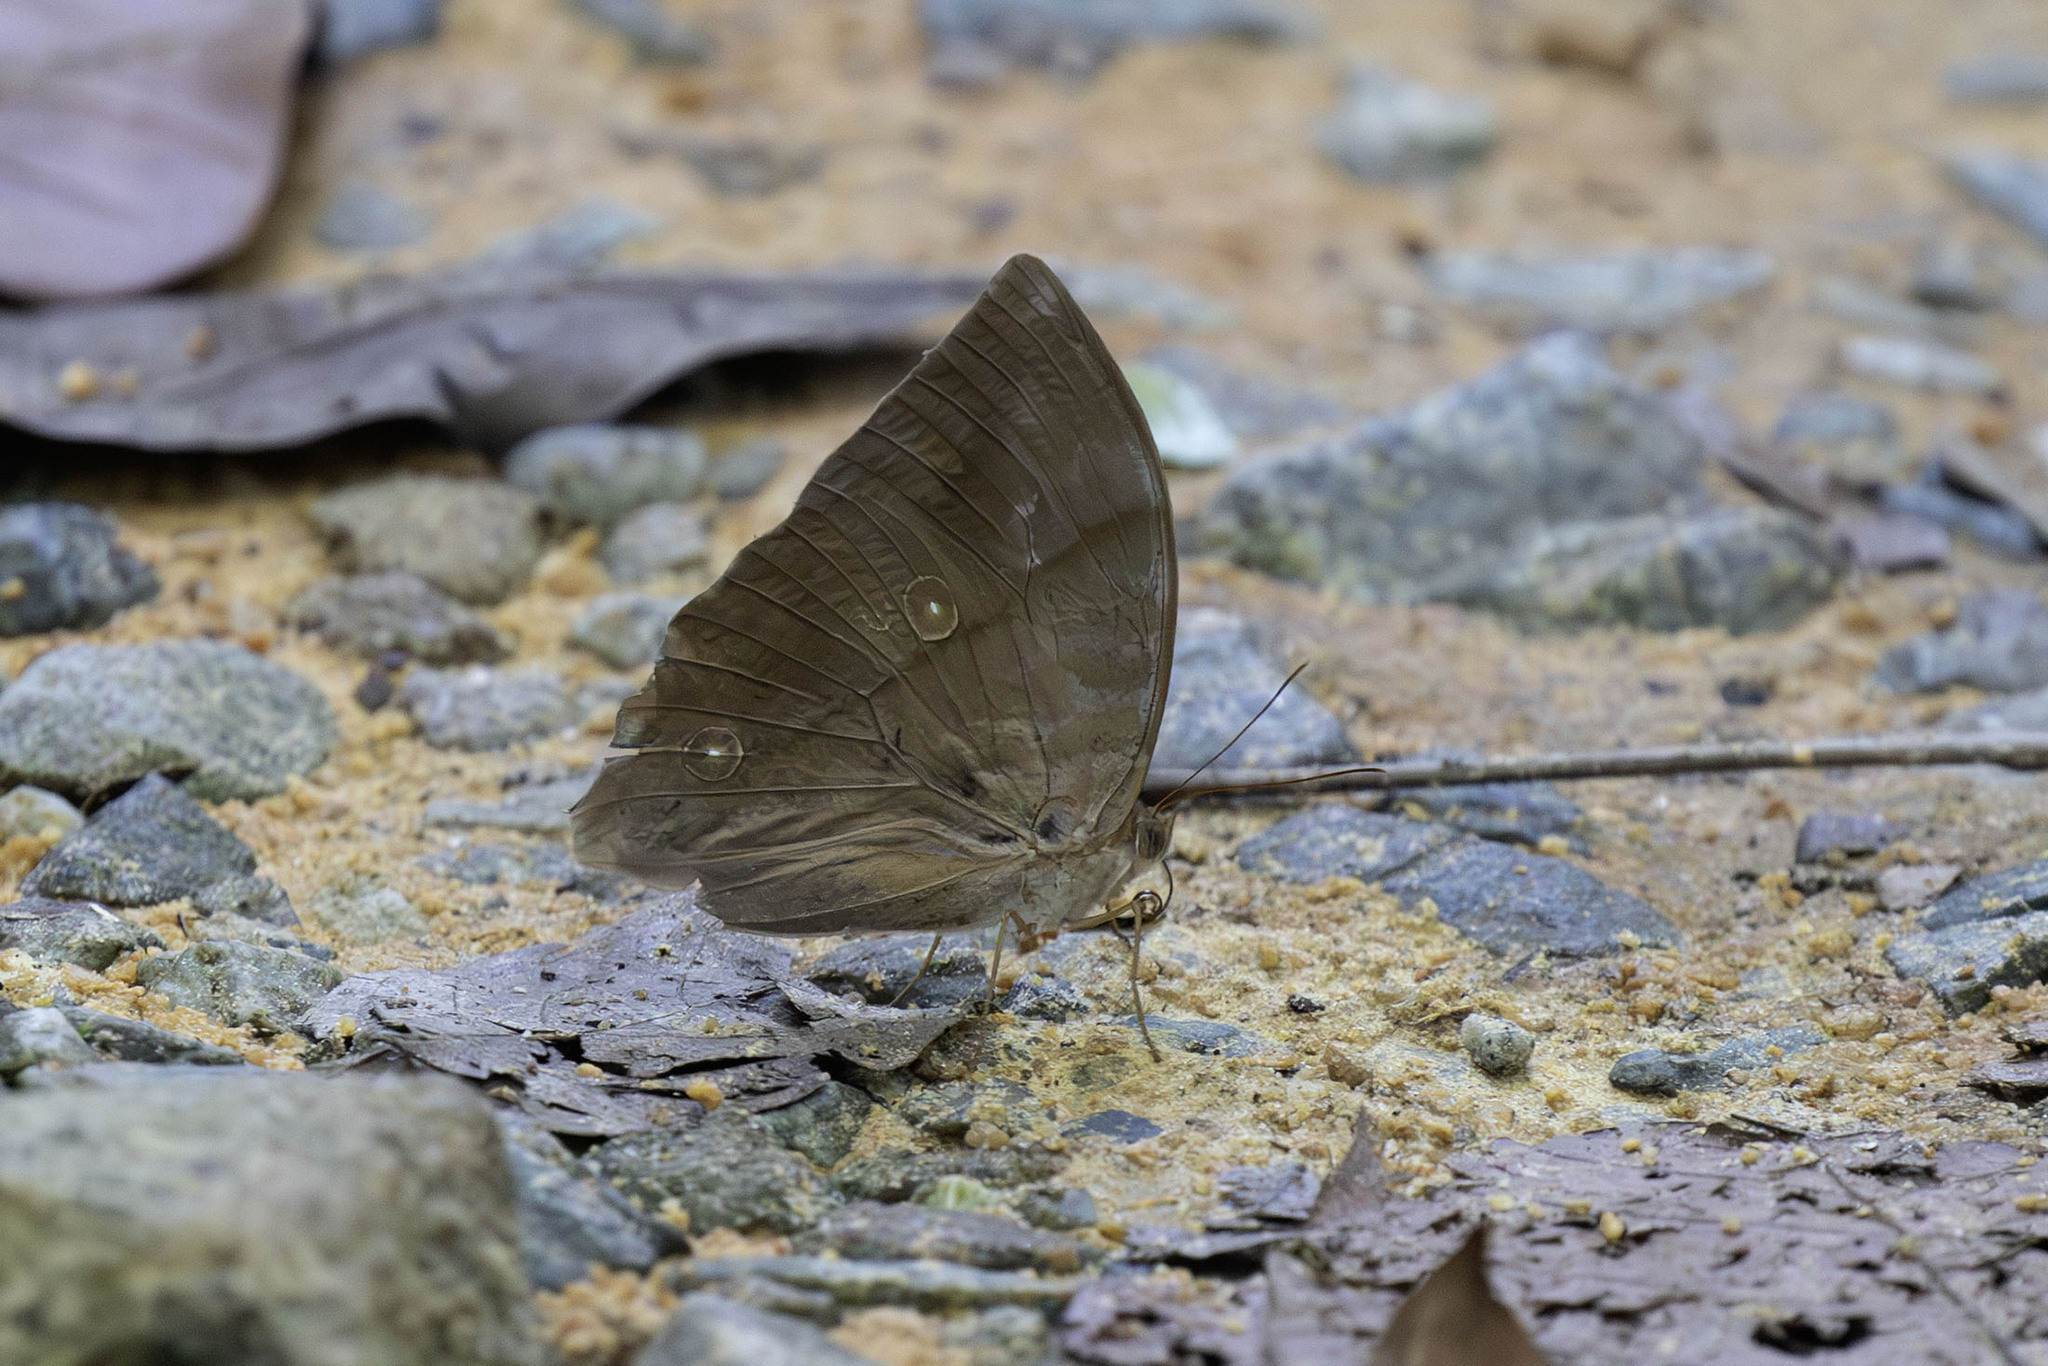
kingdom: Animalia
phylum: Arthropoda
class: Insecta
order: Lepidoptera
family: Nymphalidae
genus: Zeuxidia
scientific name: Zeuxidia amethysta
